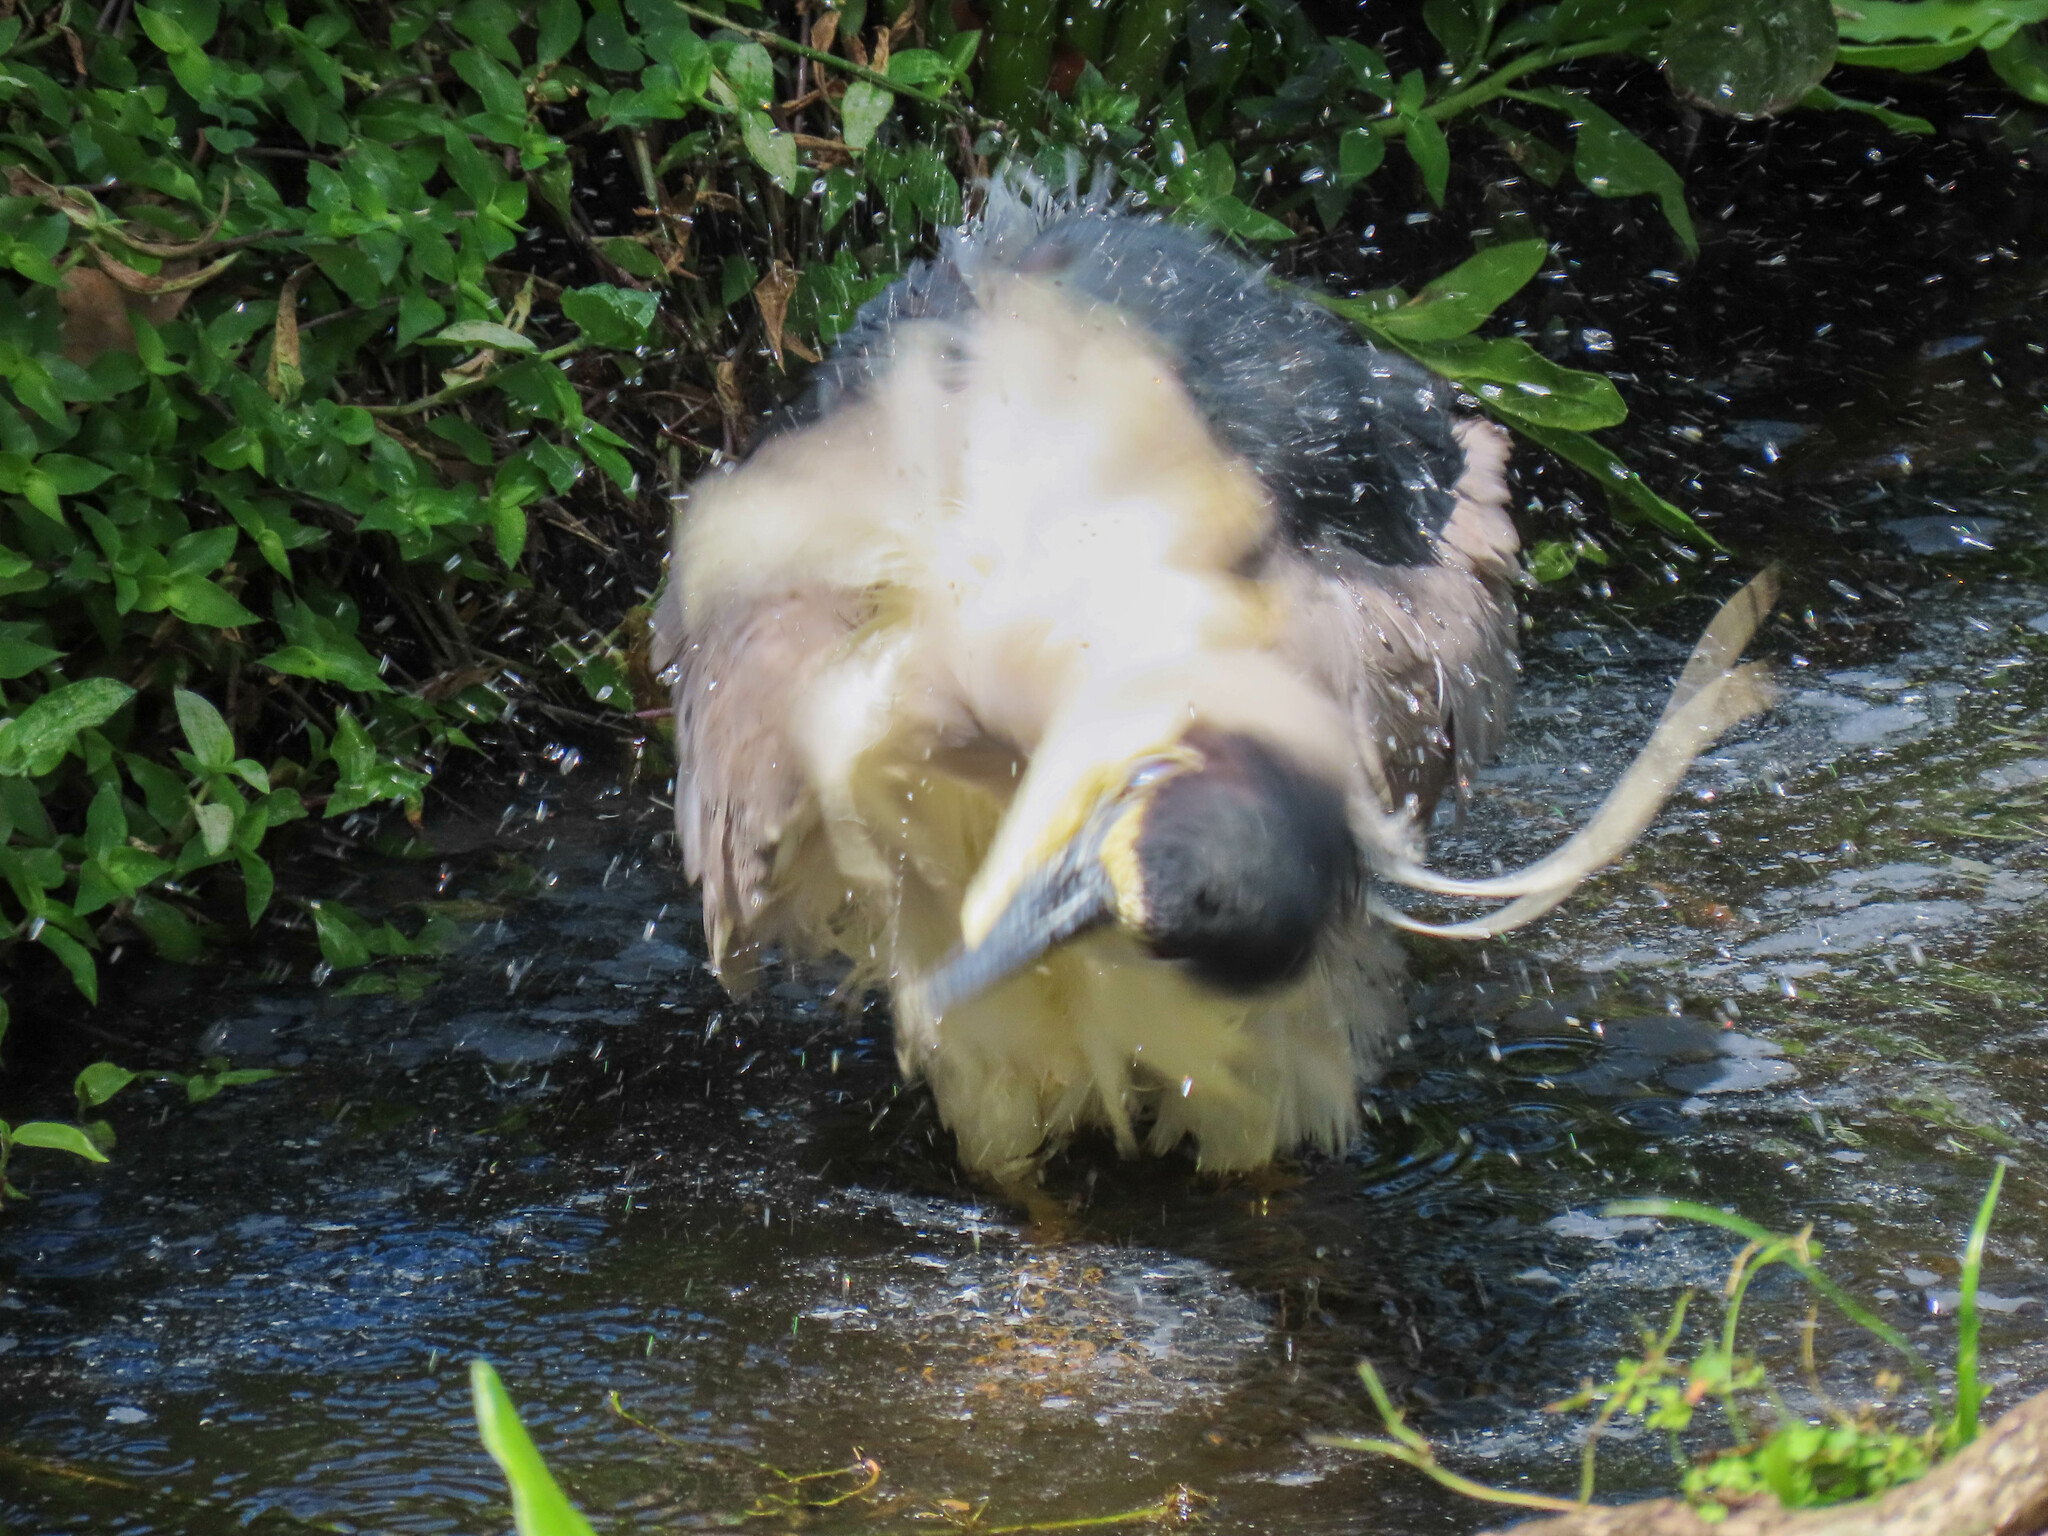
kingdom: Animalia
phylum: Chordata
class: Aves
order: Pelecaniformes
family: Ardeidae
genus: Nycticorax
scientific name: Nycticorax nycticorax
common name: Black-crowned night heron
